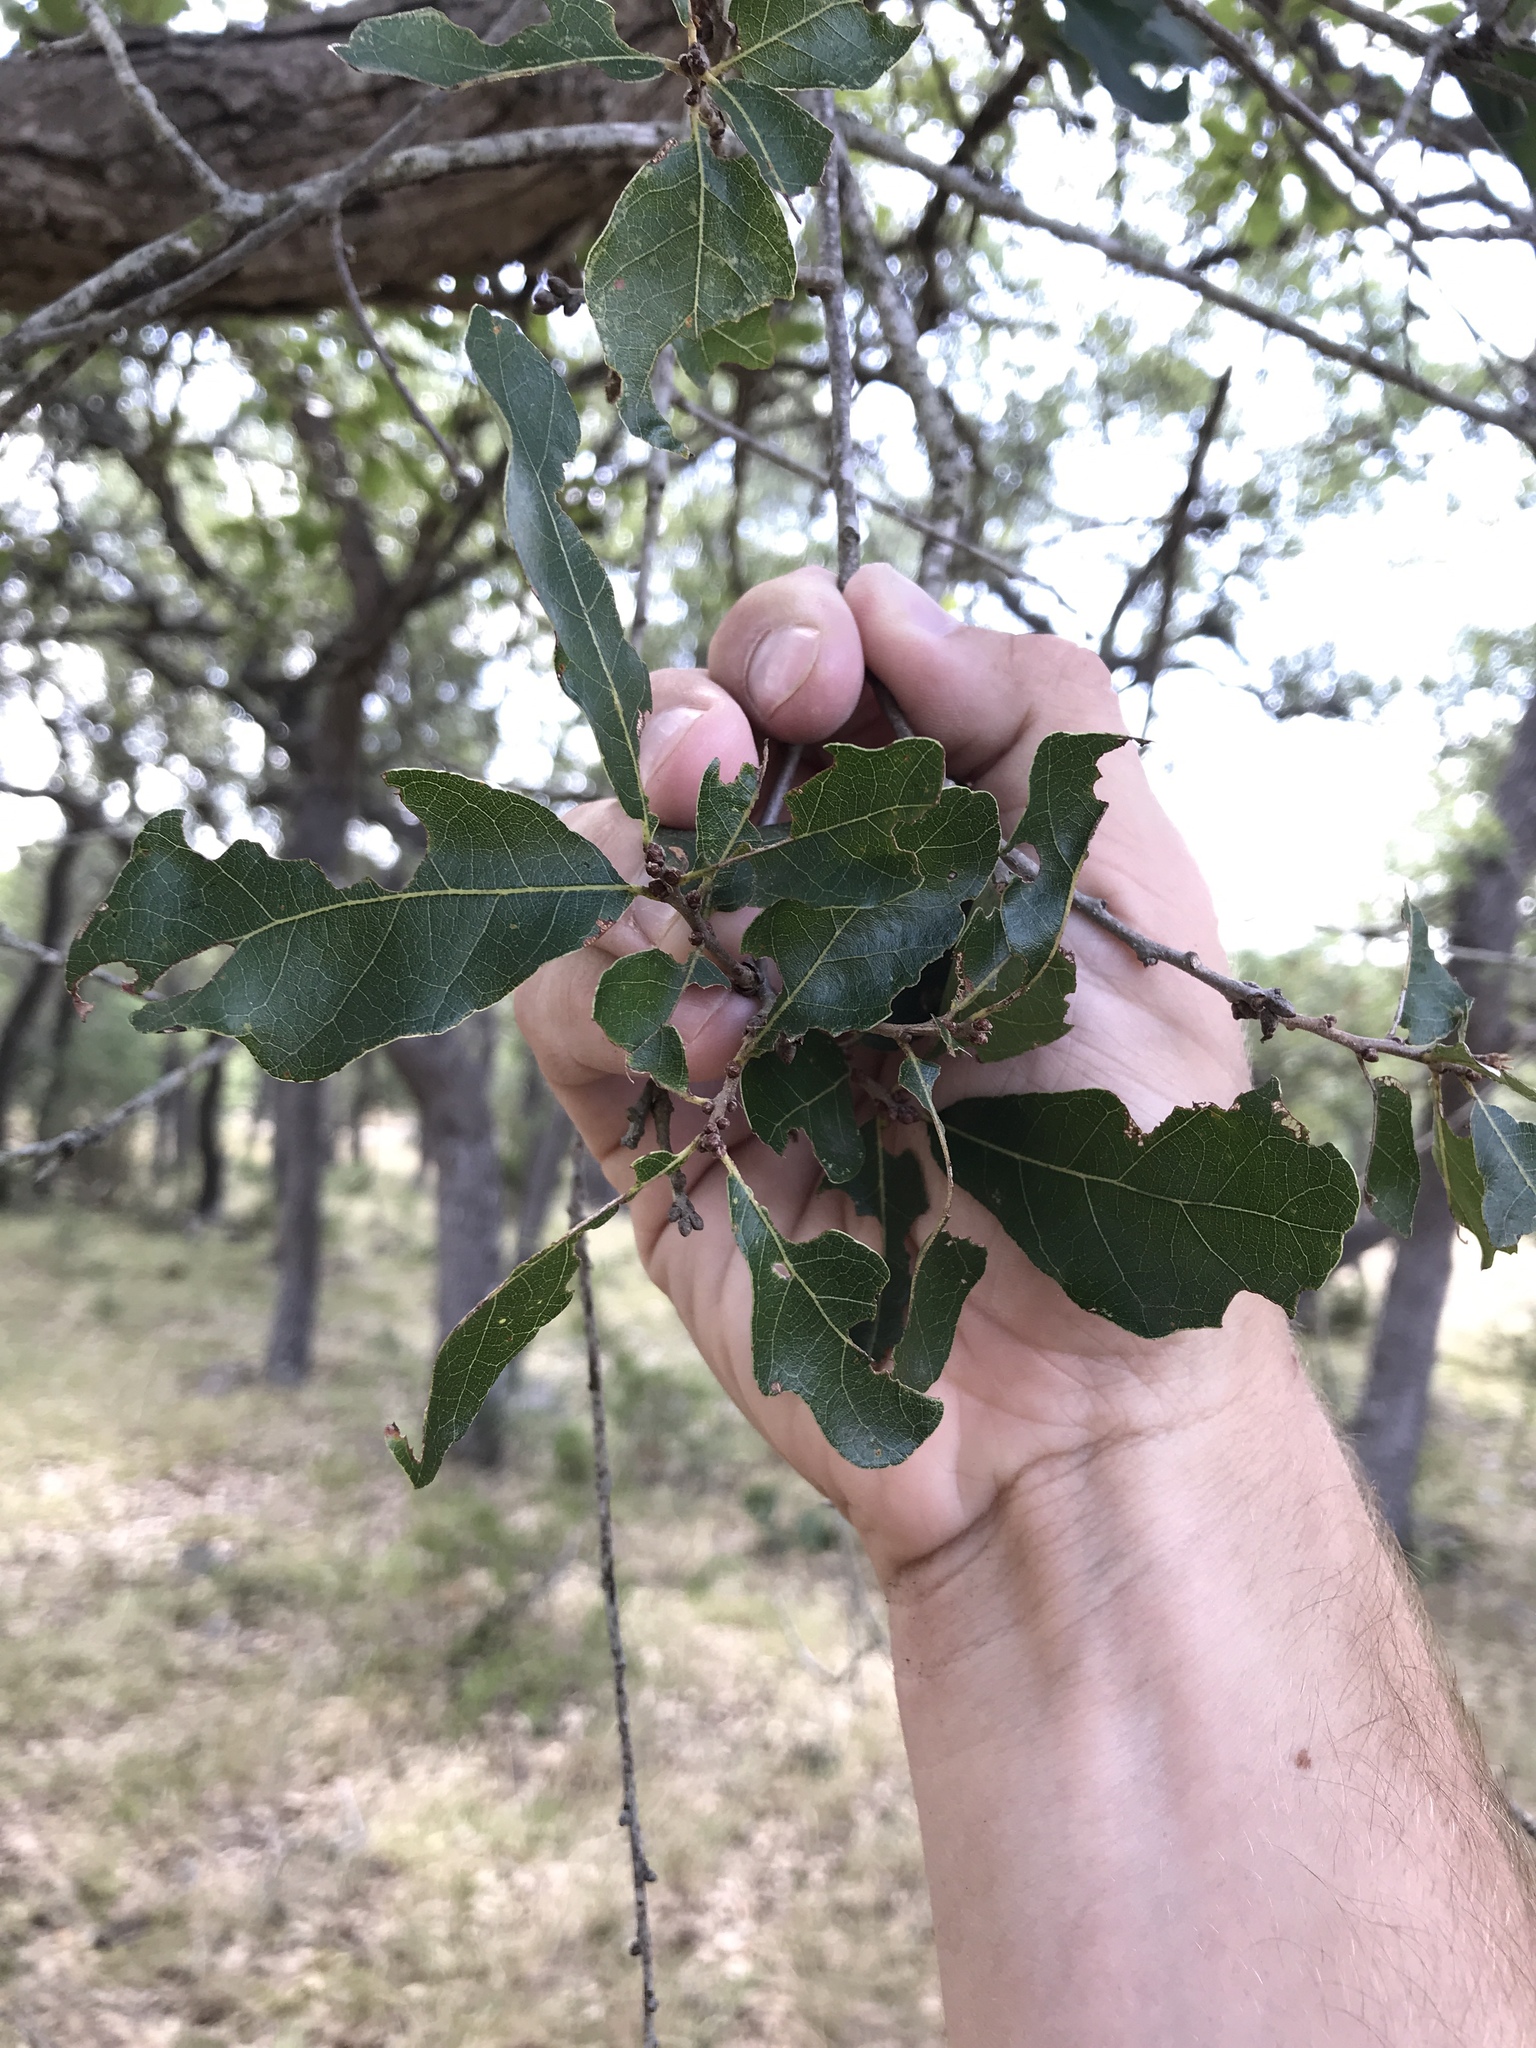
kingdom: Plantae
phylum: Tracheophyta
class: Magnoliopsida
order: Fagales
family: Fagaceae
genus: Quercus
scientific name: Quercus sinuata
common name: Durand oak
